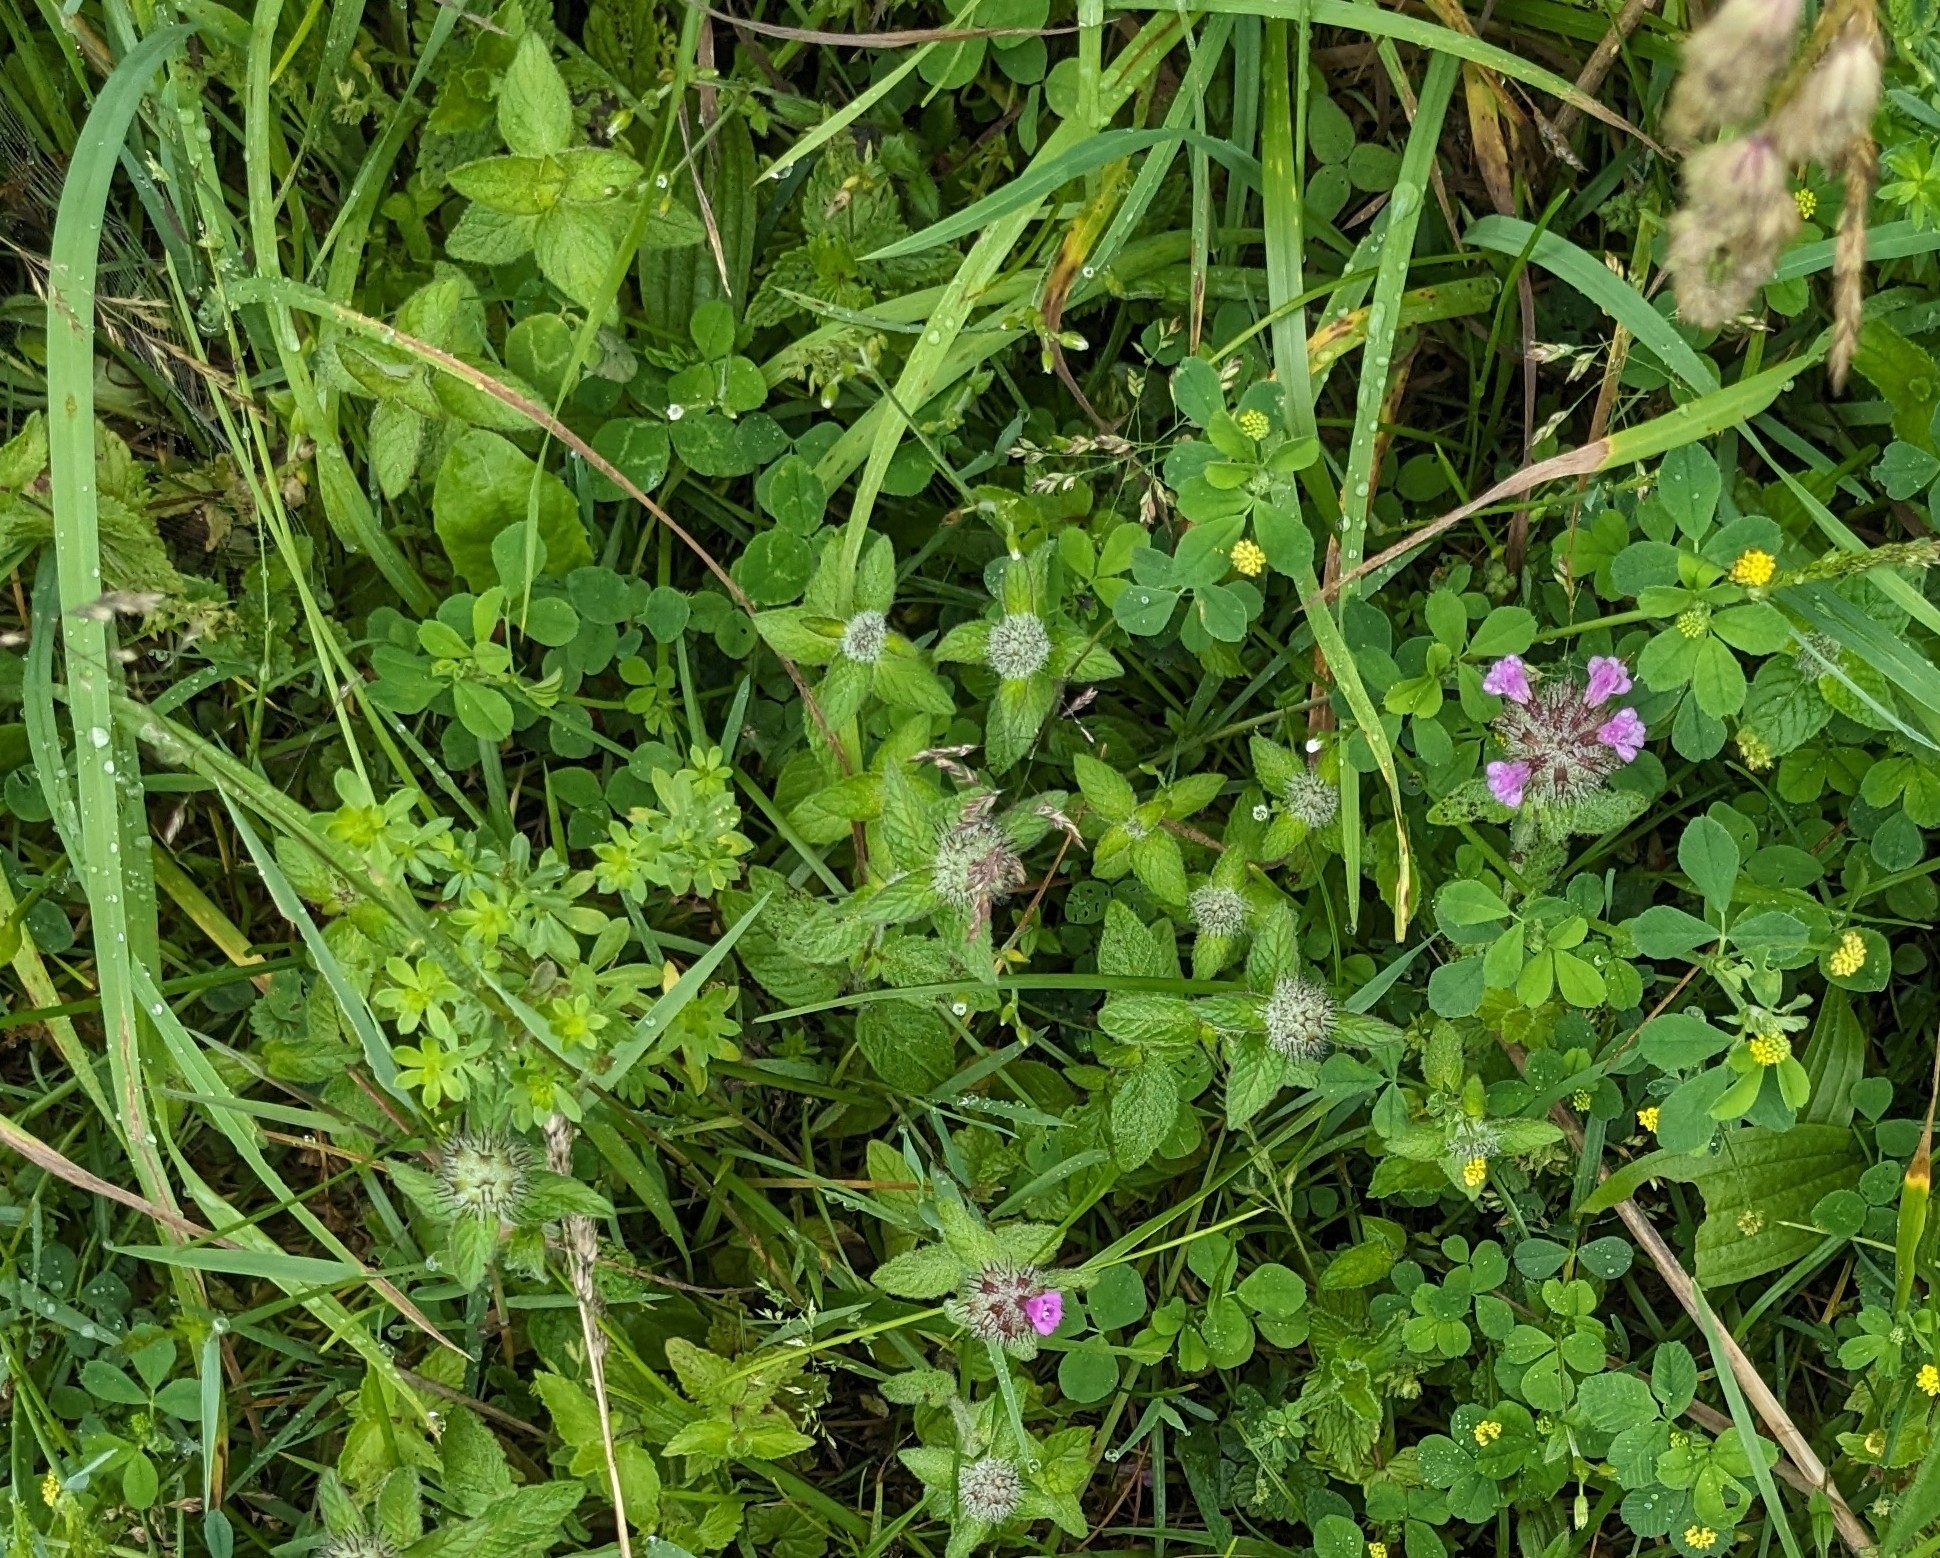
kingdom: Plantae
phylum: Tracheophyta
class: Magnoliopsida
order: Lamiales
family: Lamiaceae
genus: Clinopodium
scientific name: Clinopodium vulgare
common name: Wild basil
